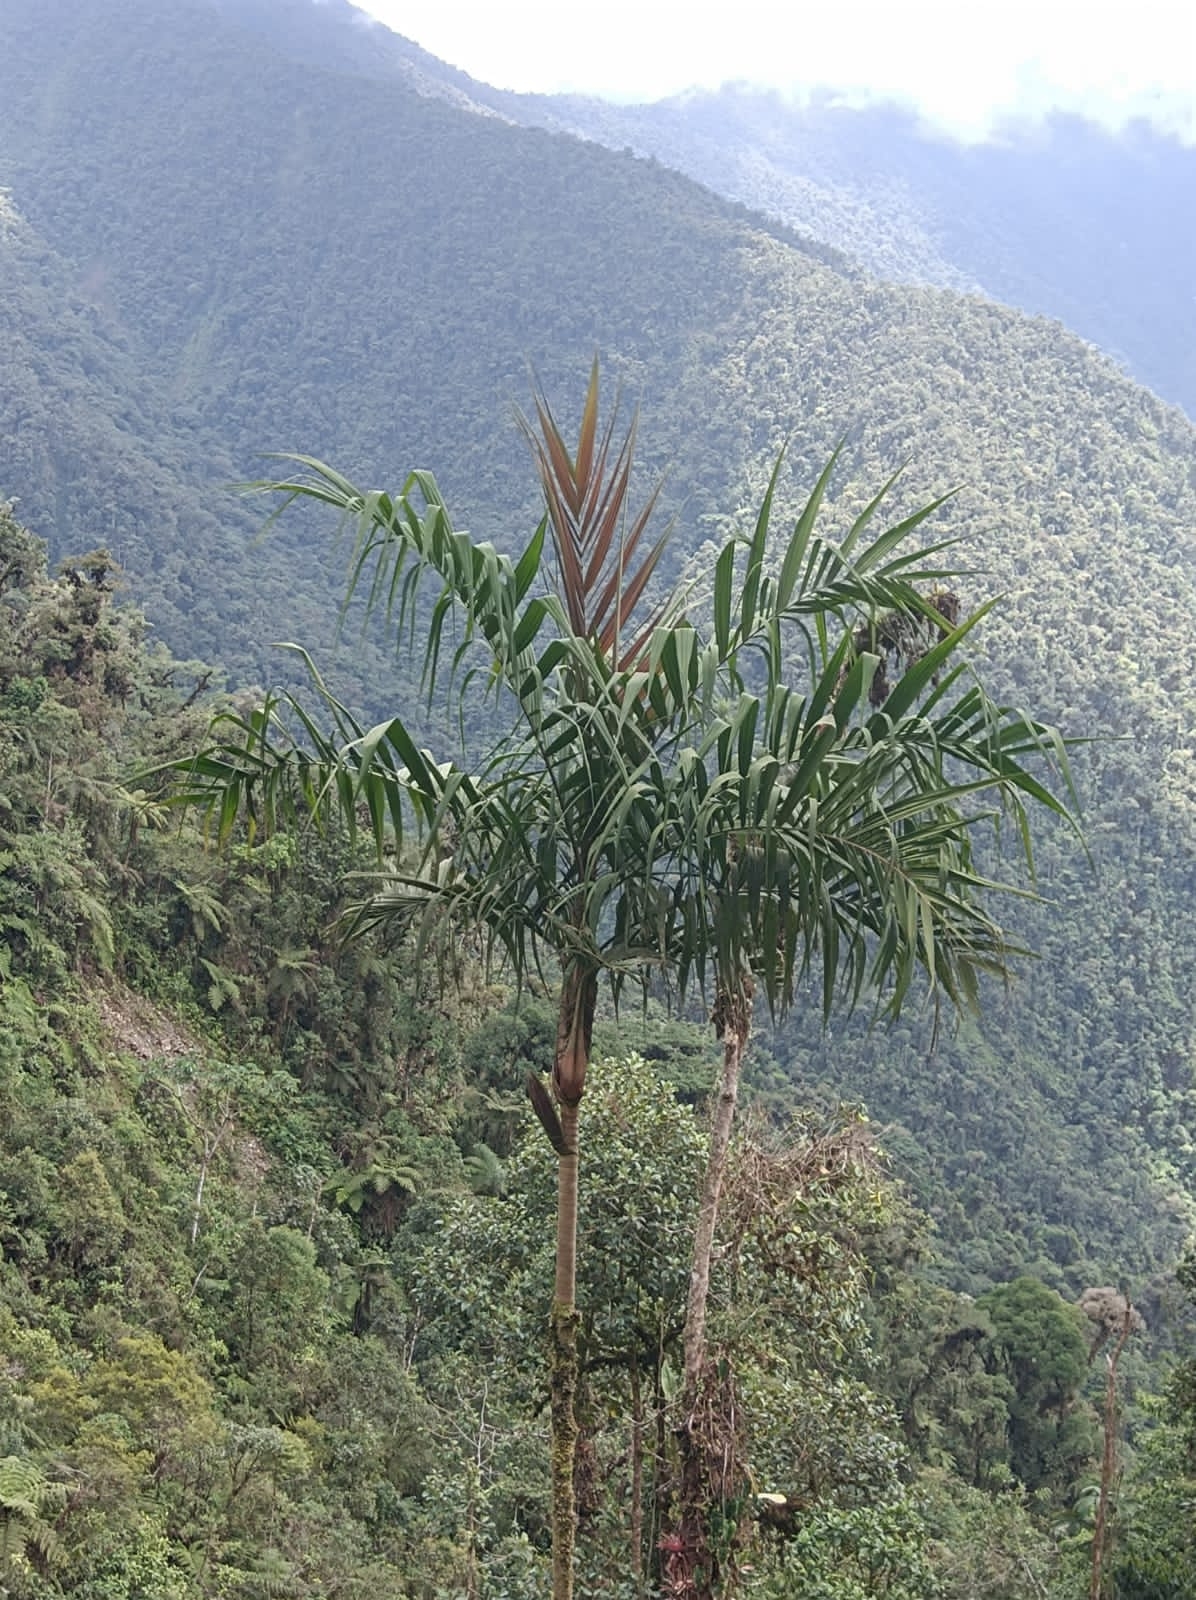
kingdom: Plantae
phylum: Tracheophyta
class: Liliopsida
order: Arecales
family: Arecaceae
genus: Geonoma
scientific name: Geonoma undata
